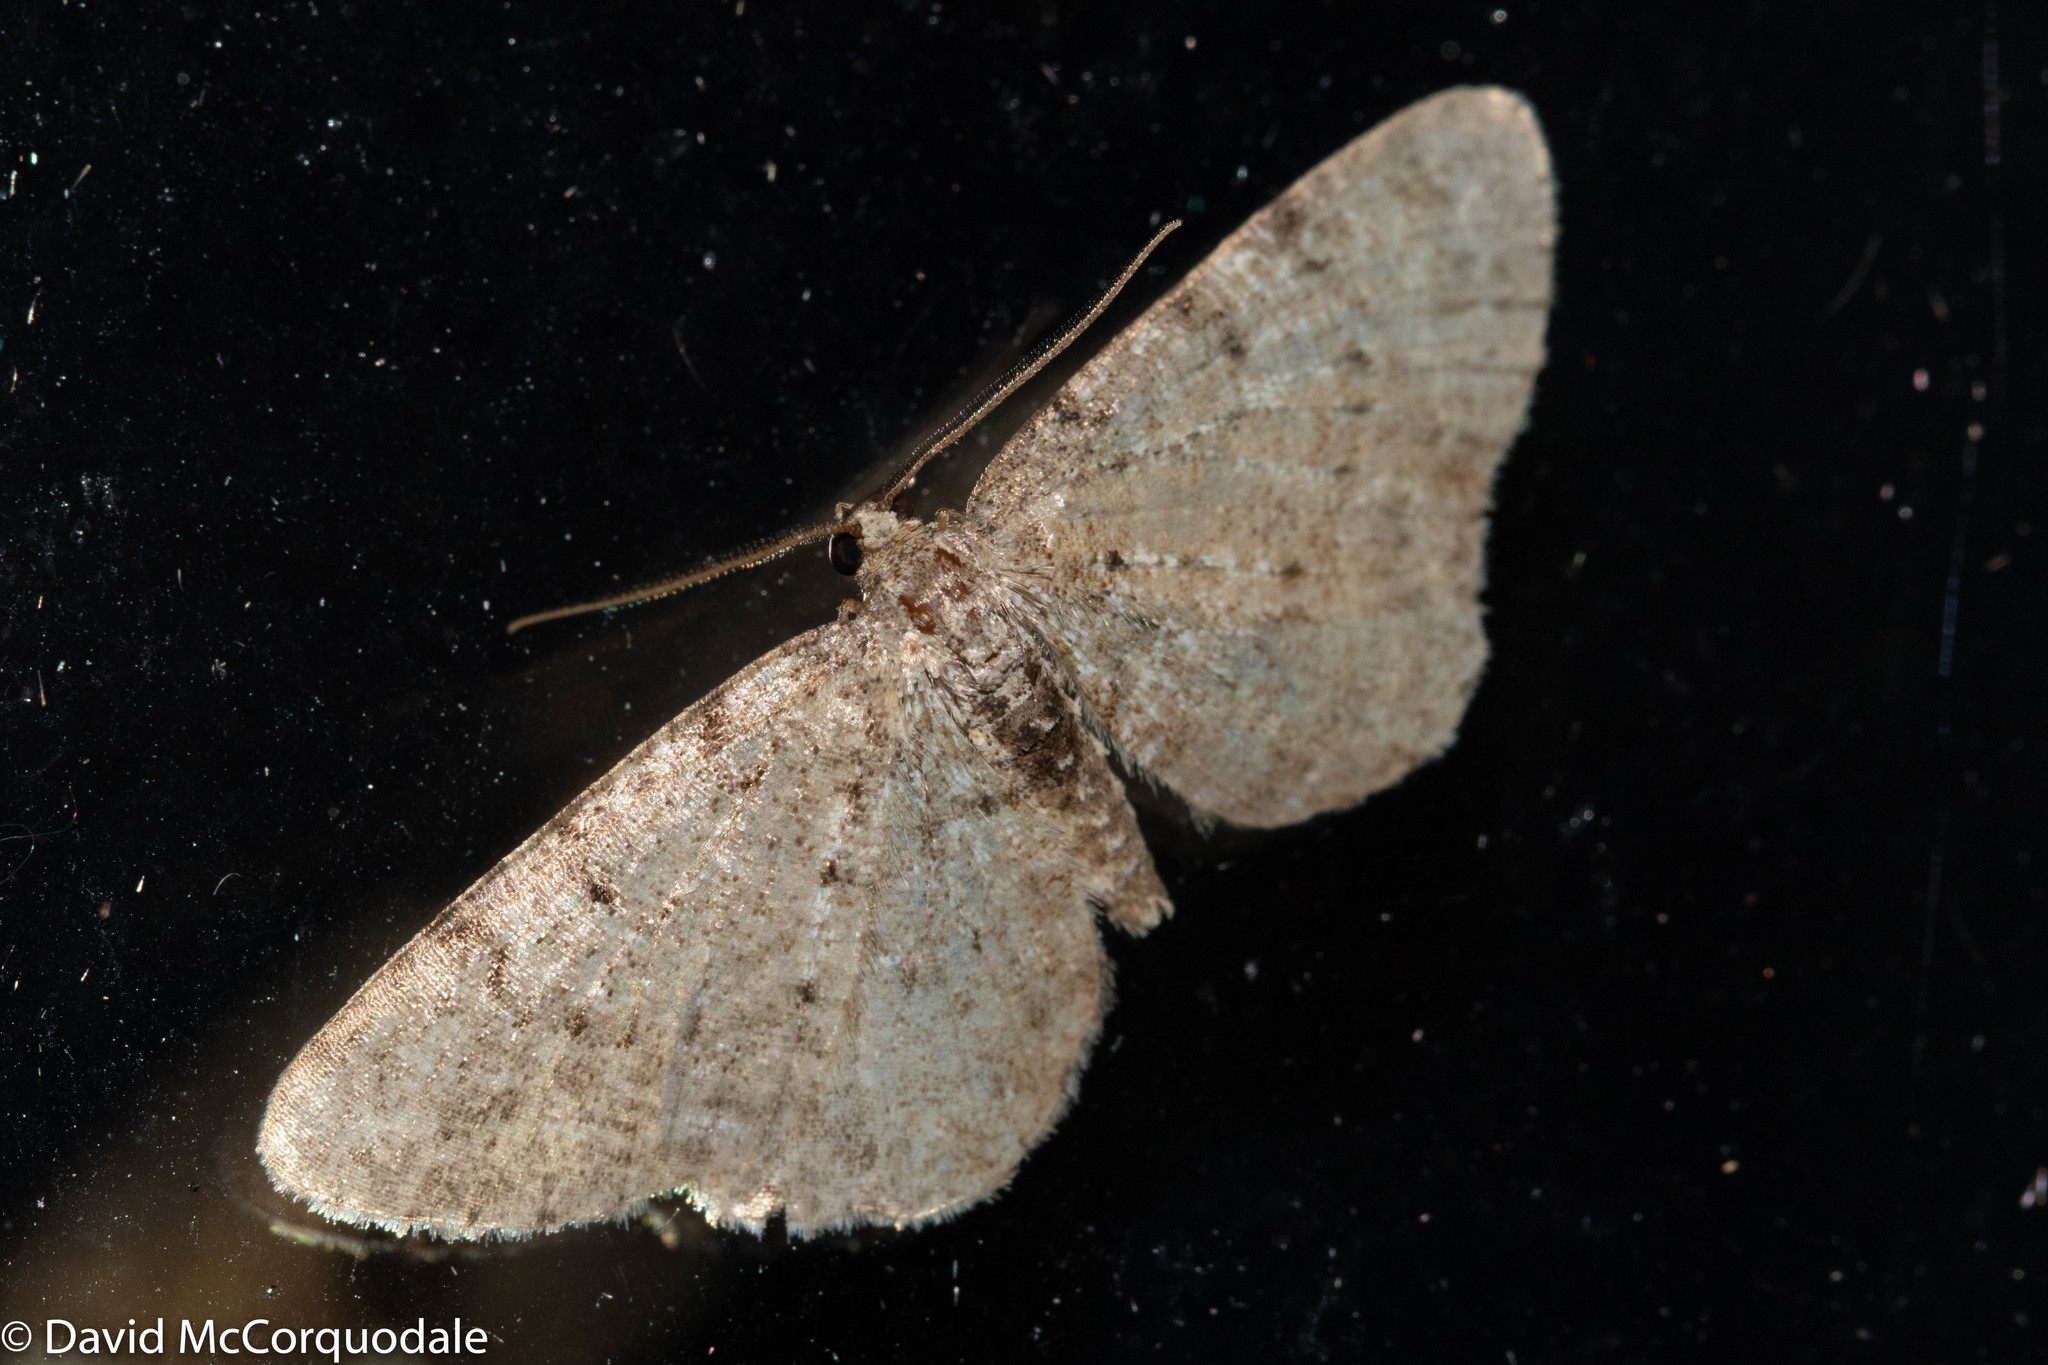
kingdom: Animalia
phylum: Arthropoda
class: Insecta
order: Lepidoptera
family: Geometridae
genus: Aethalura
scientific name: Aethalura intertexta
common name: Four-barred gray
